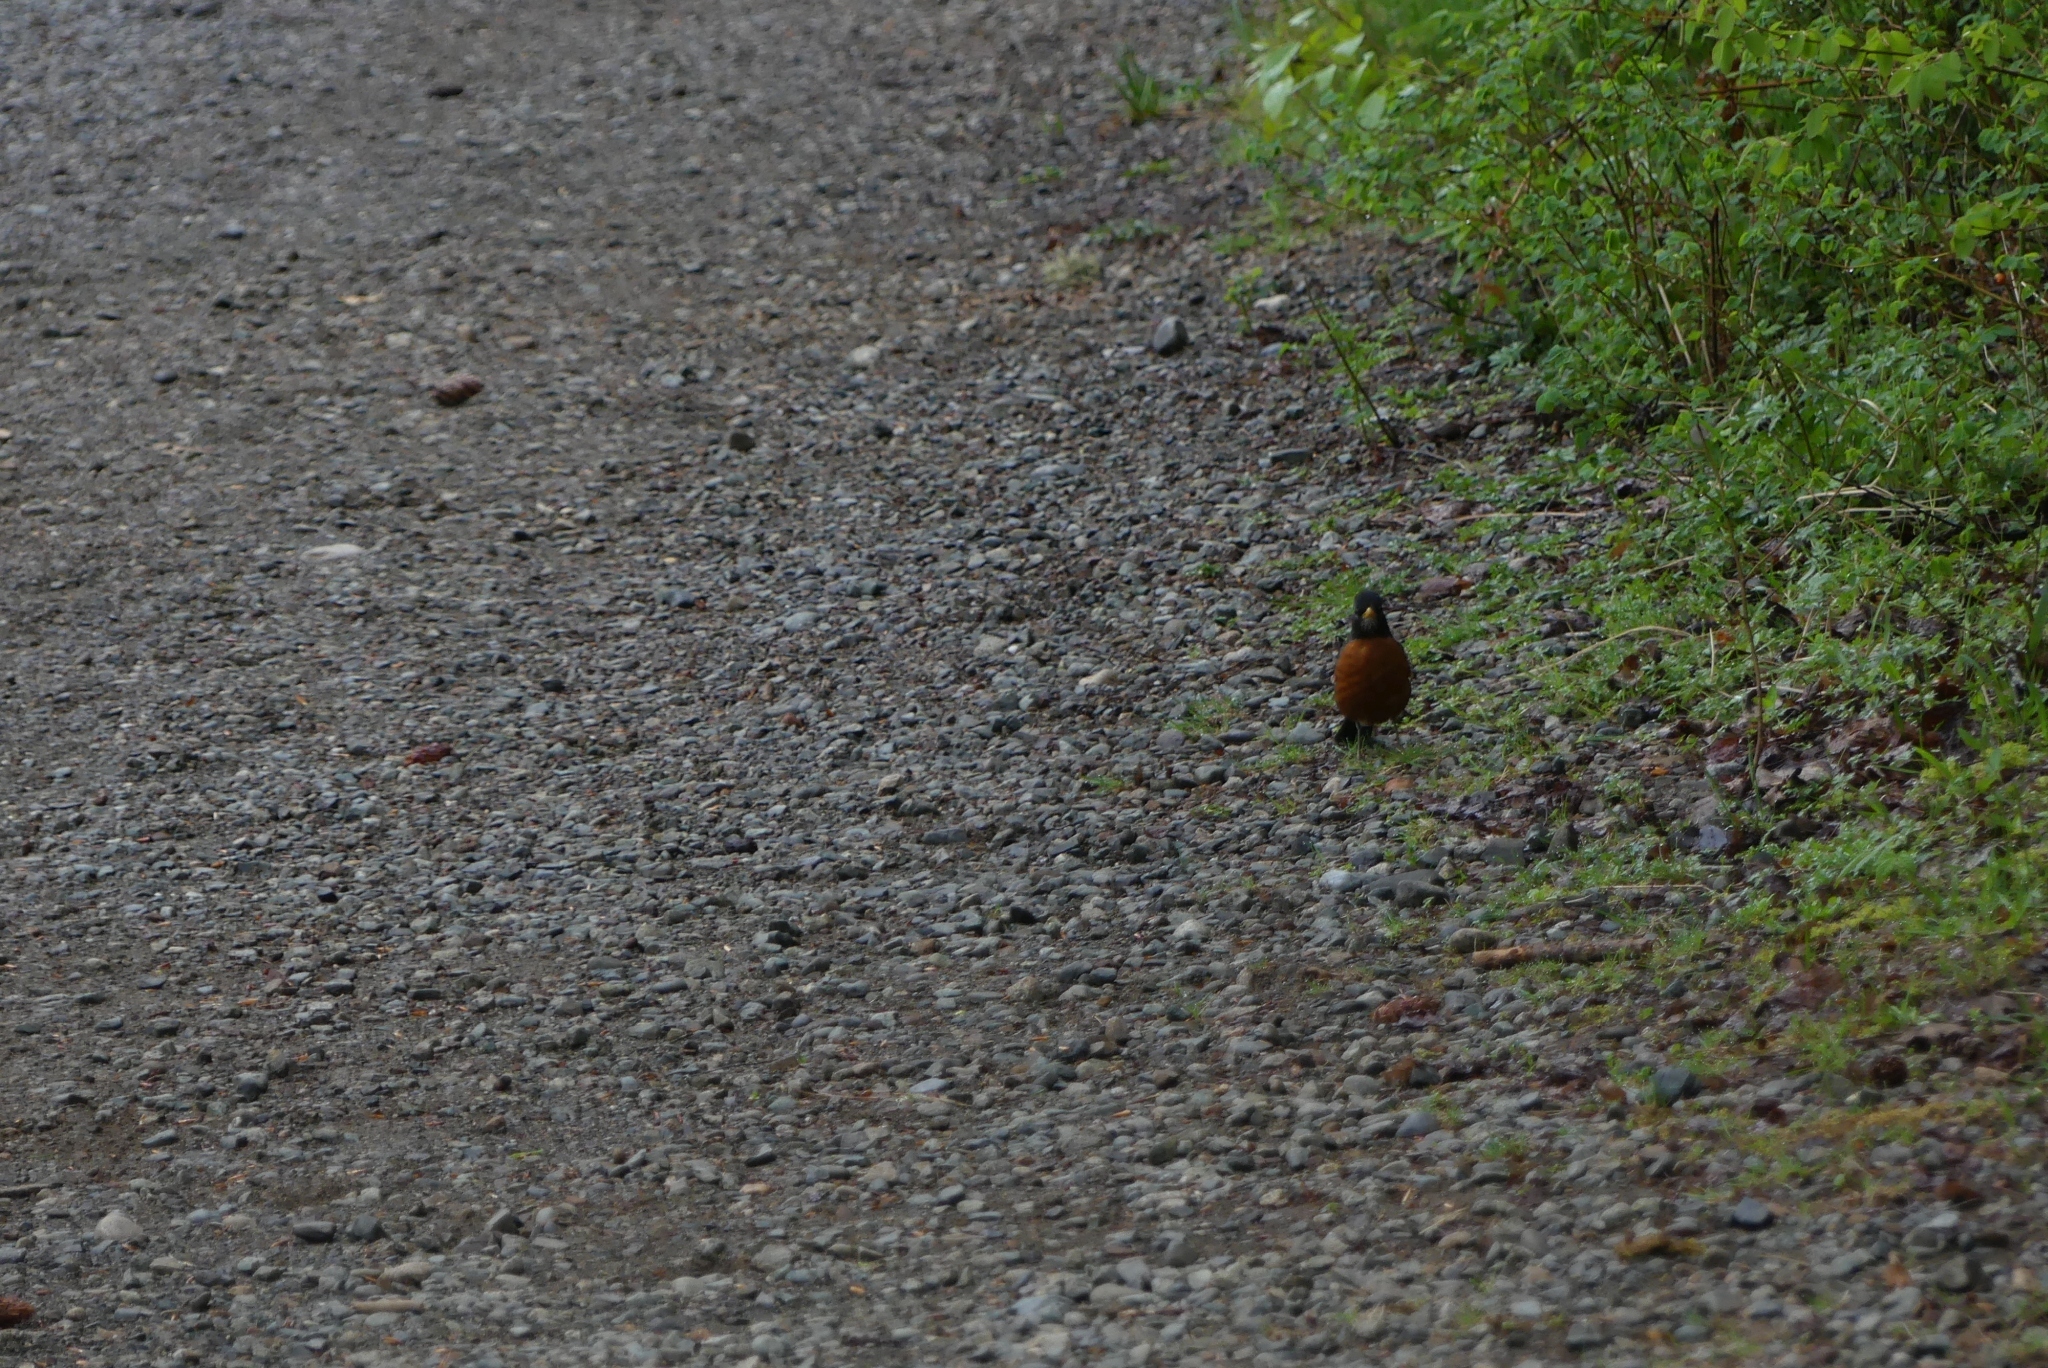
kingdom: Animalia
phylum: Chordata
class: Aves
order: Passeriformes
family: Turdidae
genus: Turdus
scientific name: Turdus migratorius
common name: American robin
